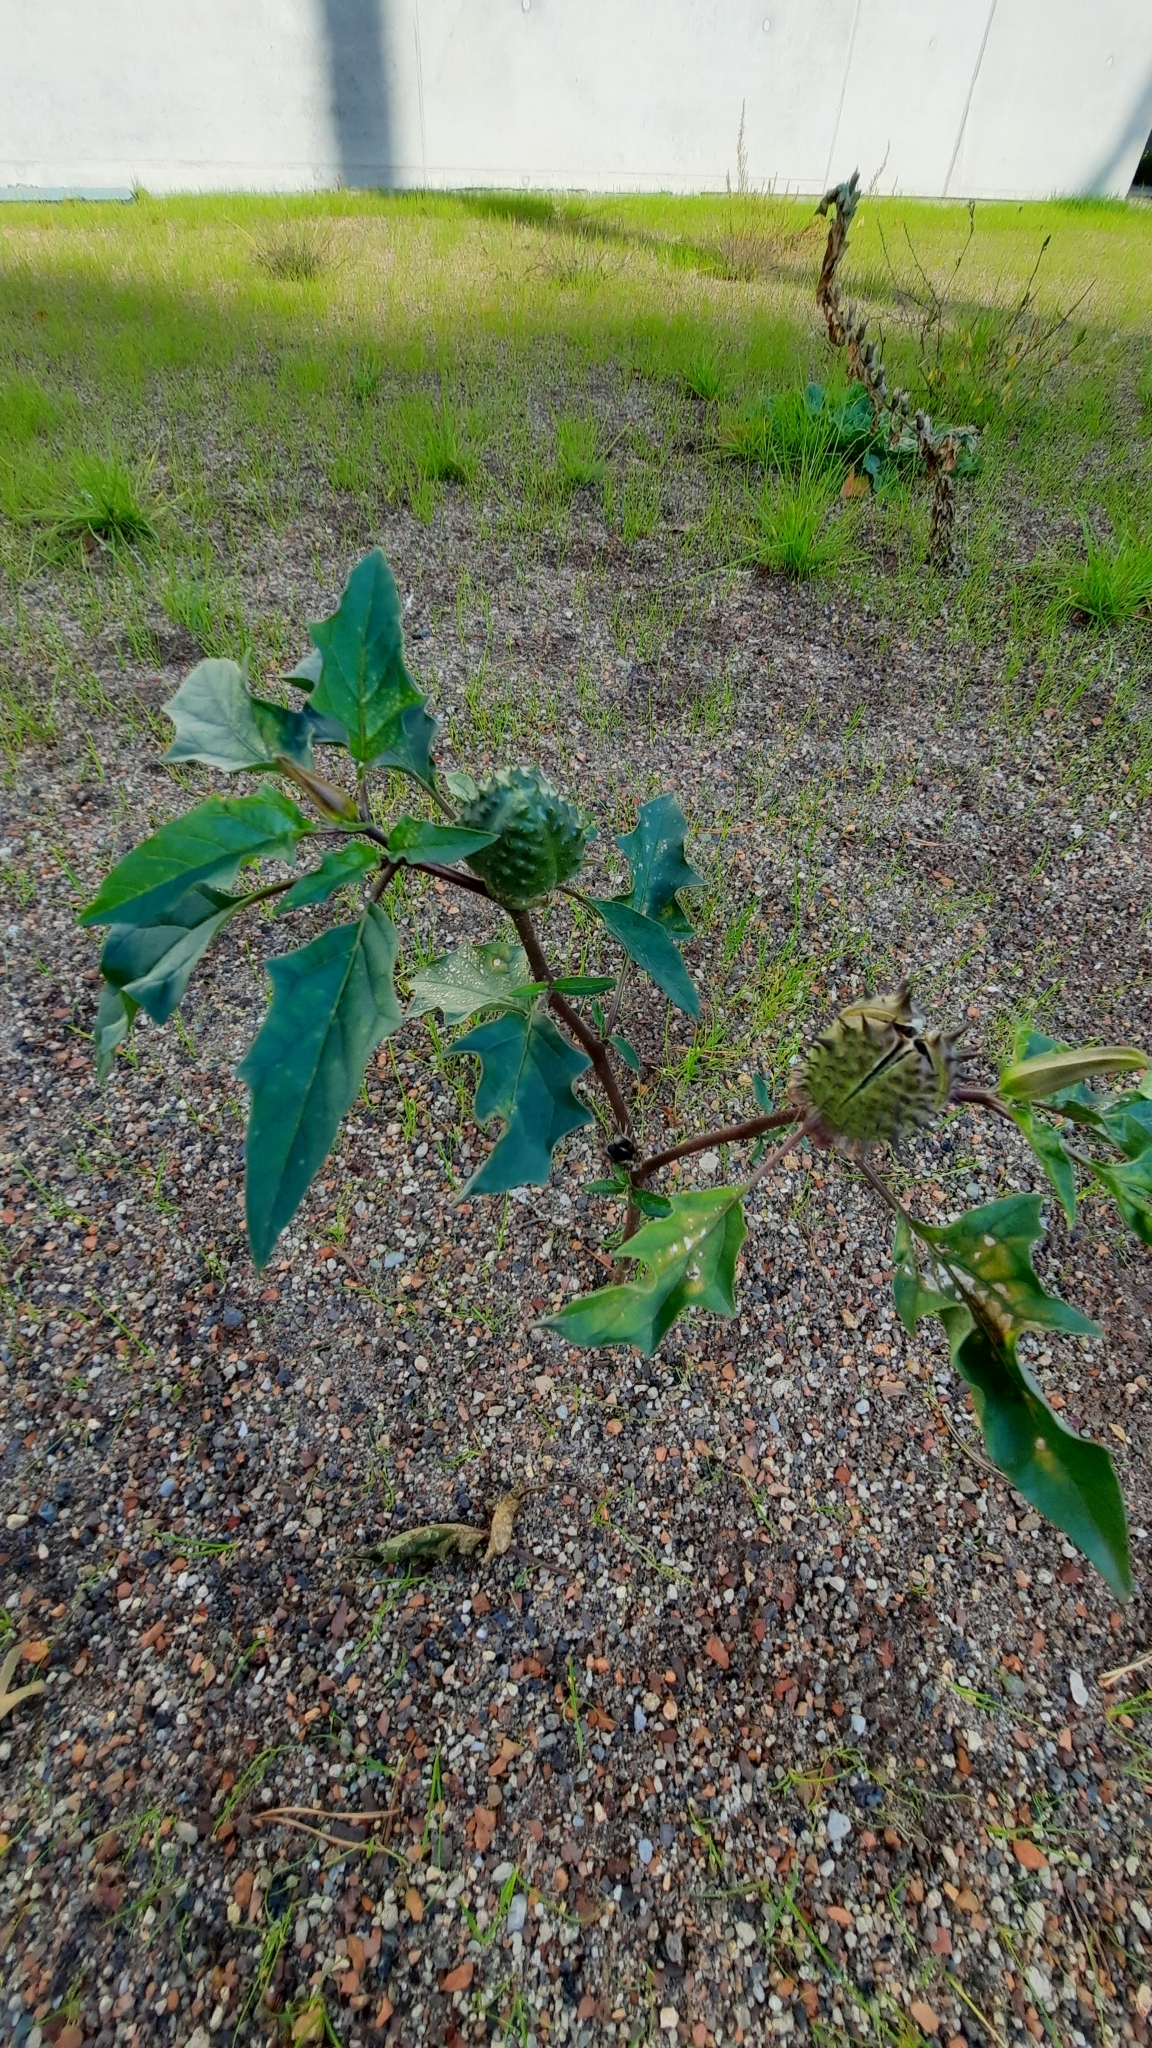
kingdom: Plantae
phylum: Tracheophyta
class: Magnoliopsida
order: Solanales
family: Solanaceae
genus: Datura
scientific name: Datura stramonium
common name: Thorn-apple
